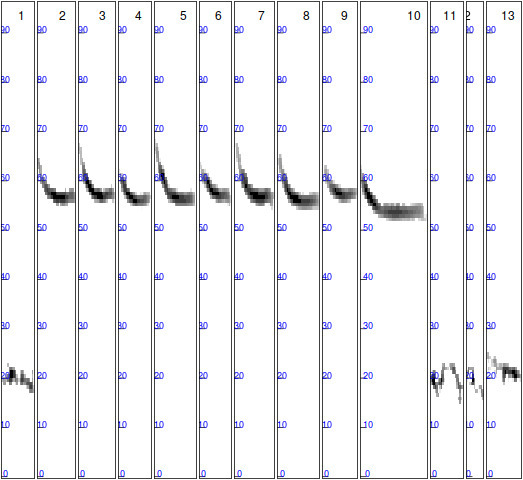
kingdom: Animalia
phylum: Chordata
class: Mammalia
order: Chiroptera
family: Vespertilionidae
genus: Pipistrellus
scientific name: Pipistrellus pygmaeus
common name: Soprano pipistrelle
